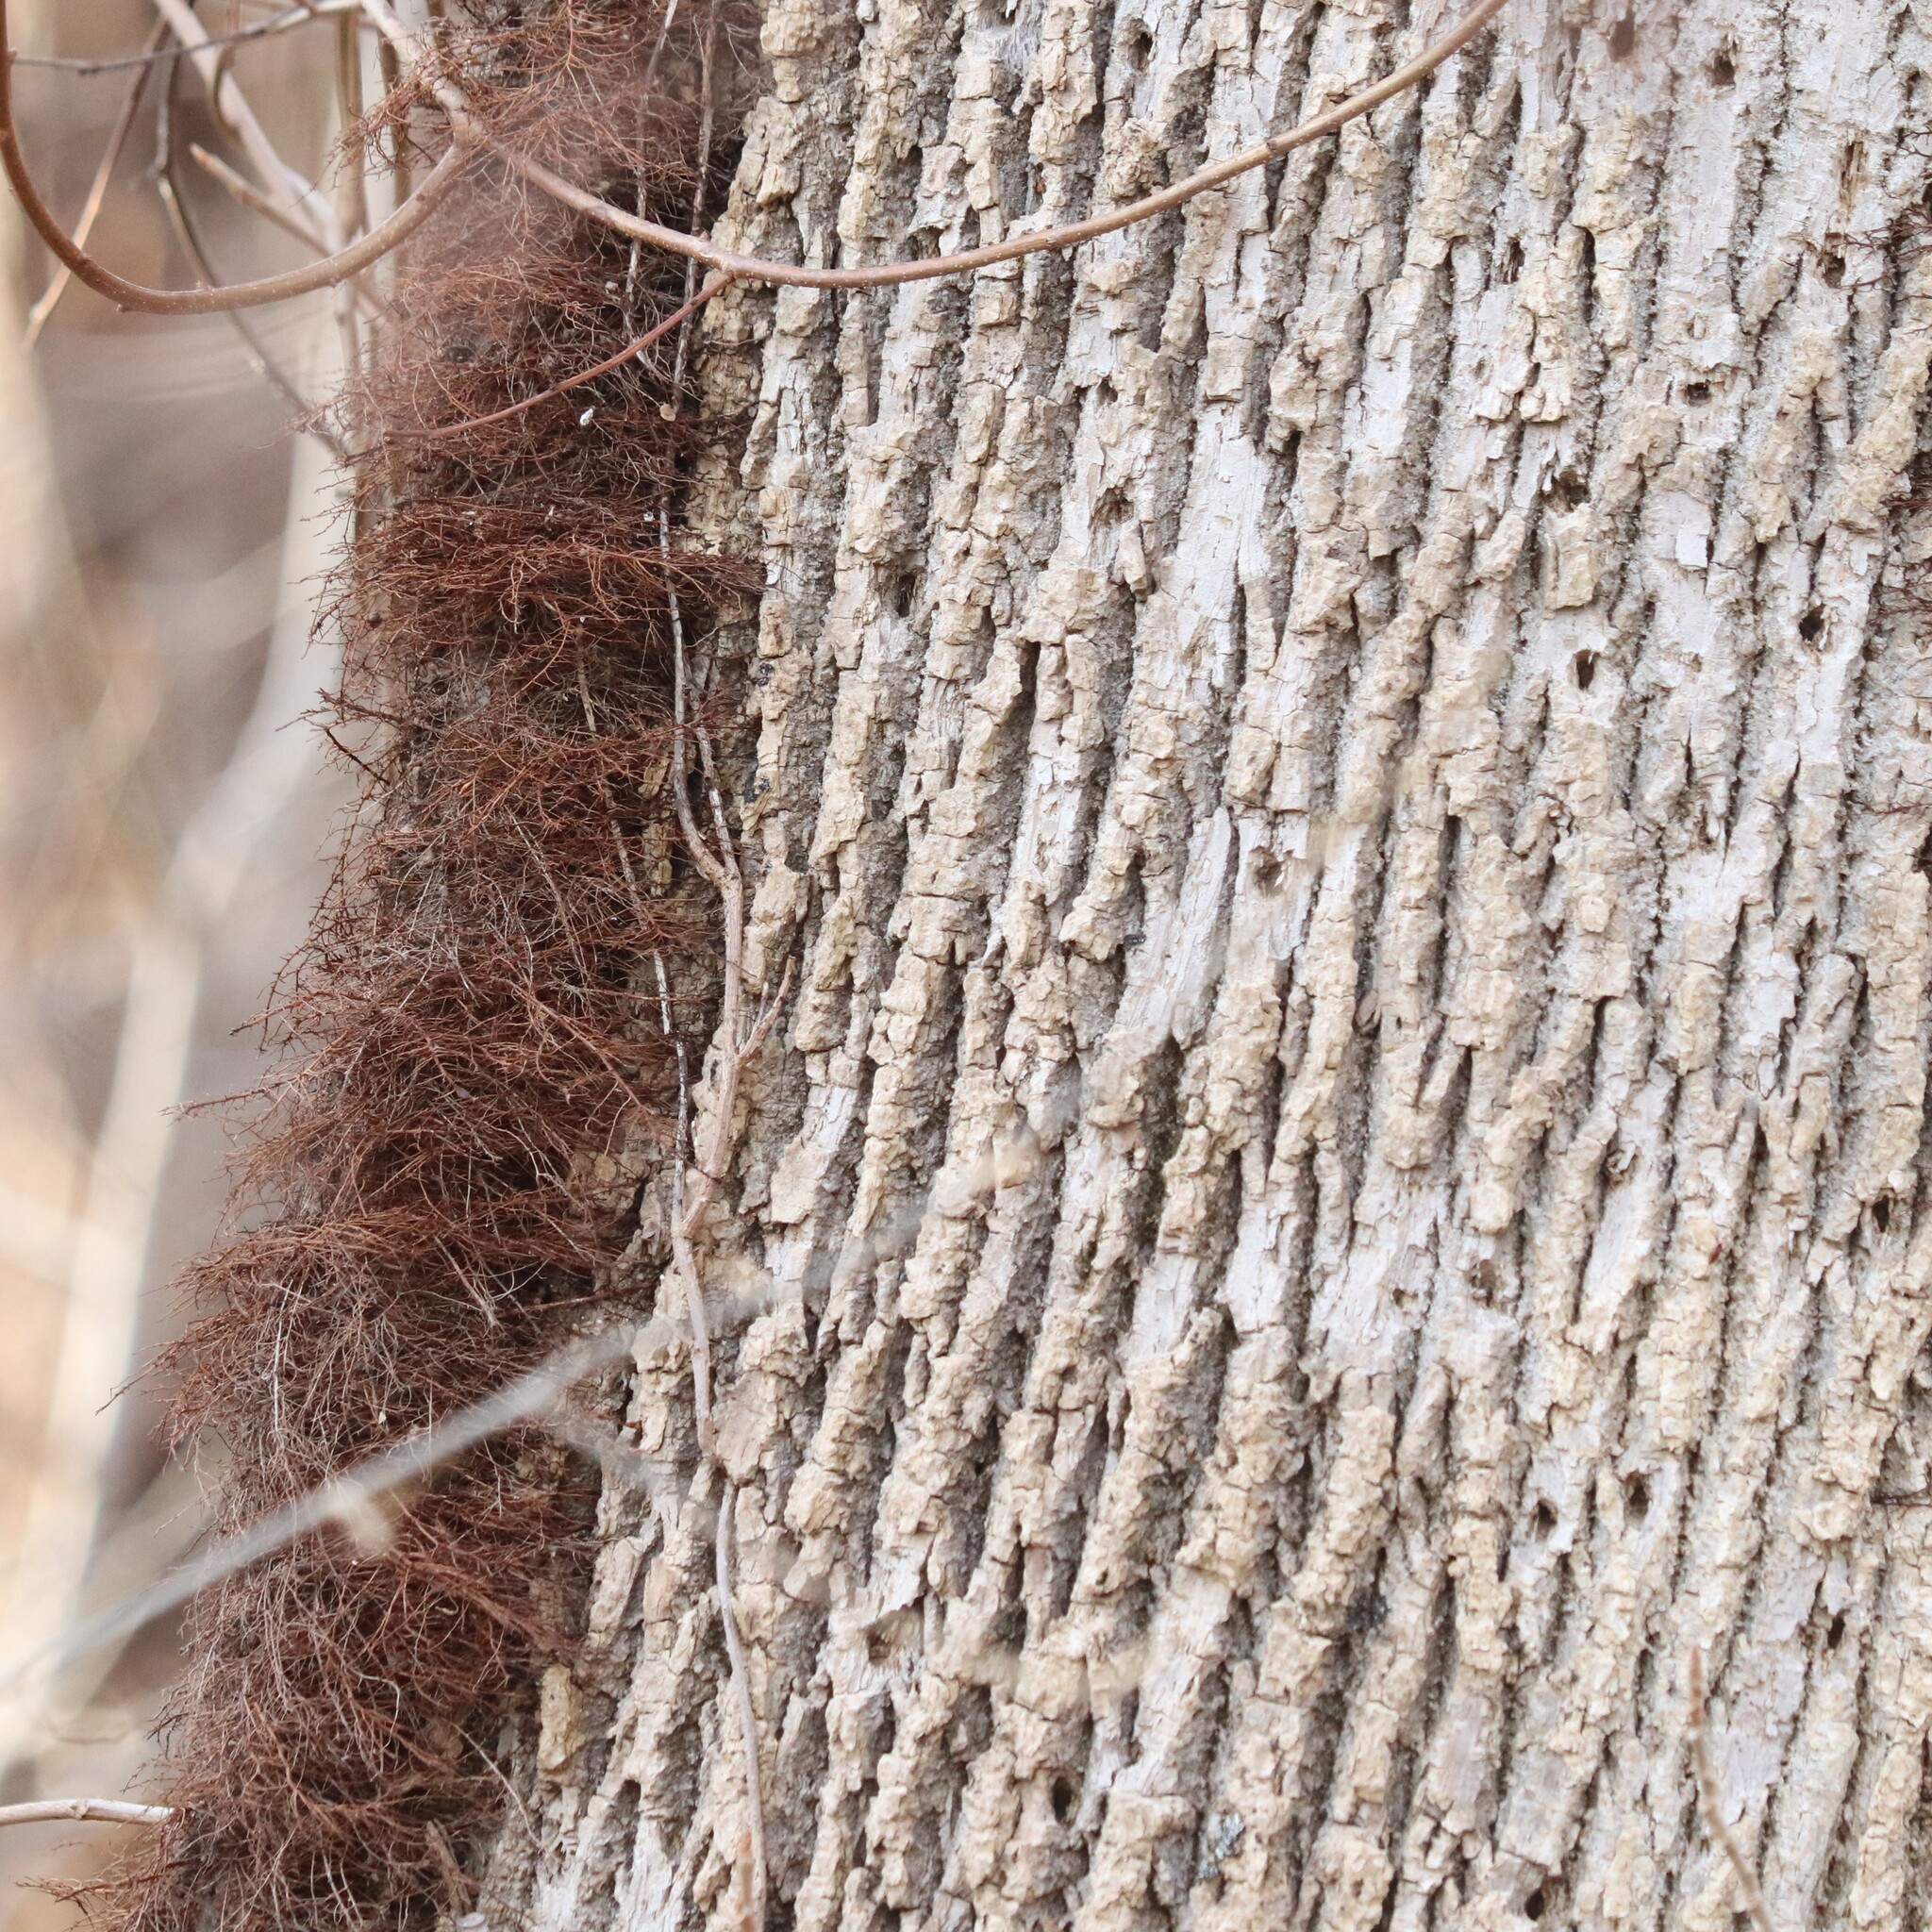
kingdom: Plantae
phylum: Tracheophyta
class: Magnoliopsida
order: Lamiales
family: Oleaceae
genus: Fraxinus
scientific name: Fraxinus americana
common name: White ash
